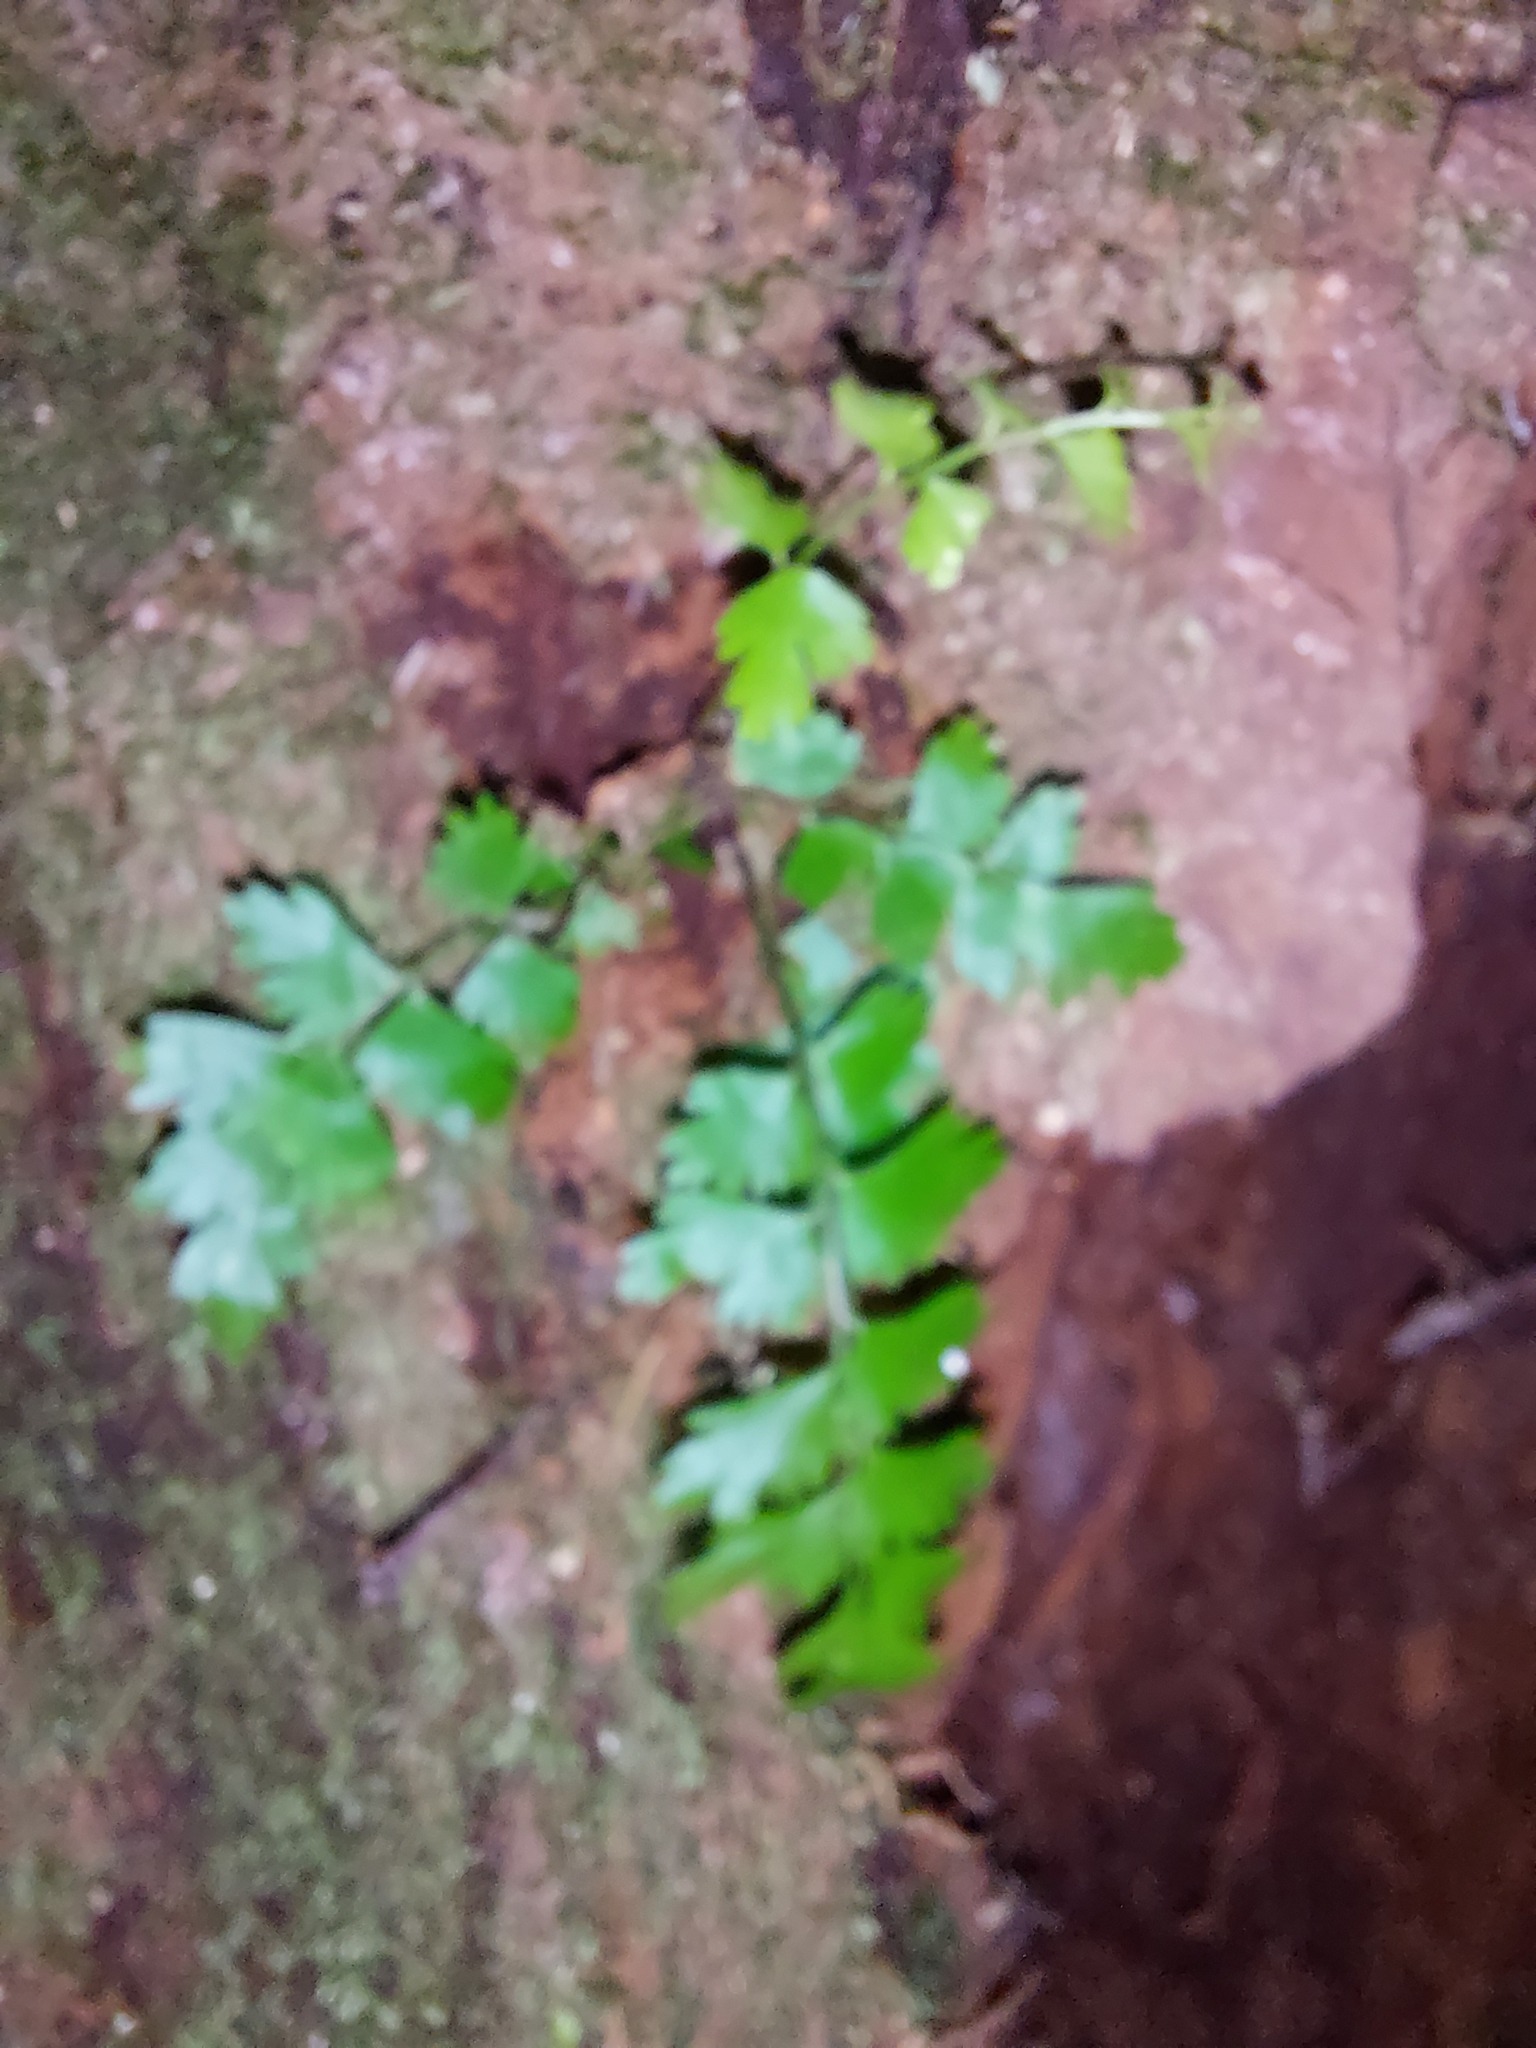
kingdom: Plantae
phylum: Tracheophyta
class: Polypodiopsida
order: Polypodiales
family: Aspleniaceae
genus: Asplenium
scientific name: Asplenium polyodon
